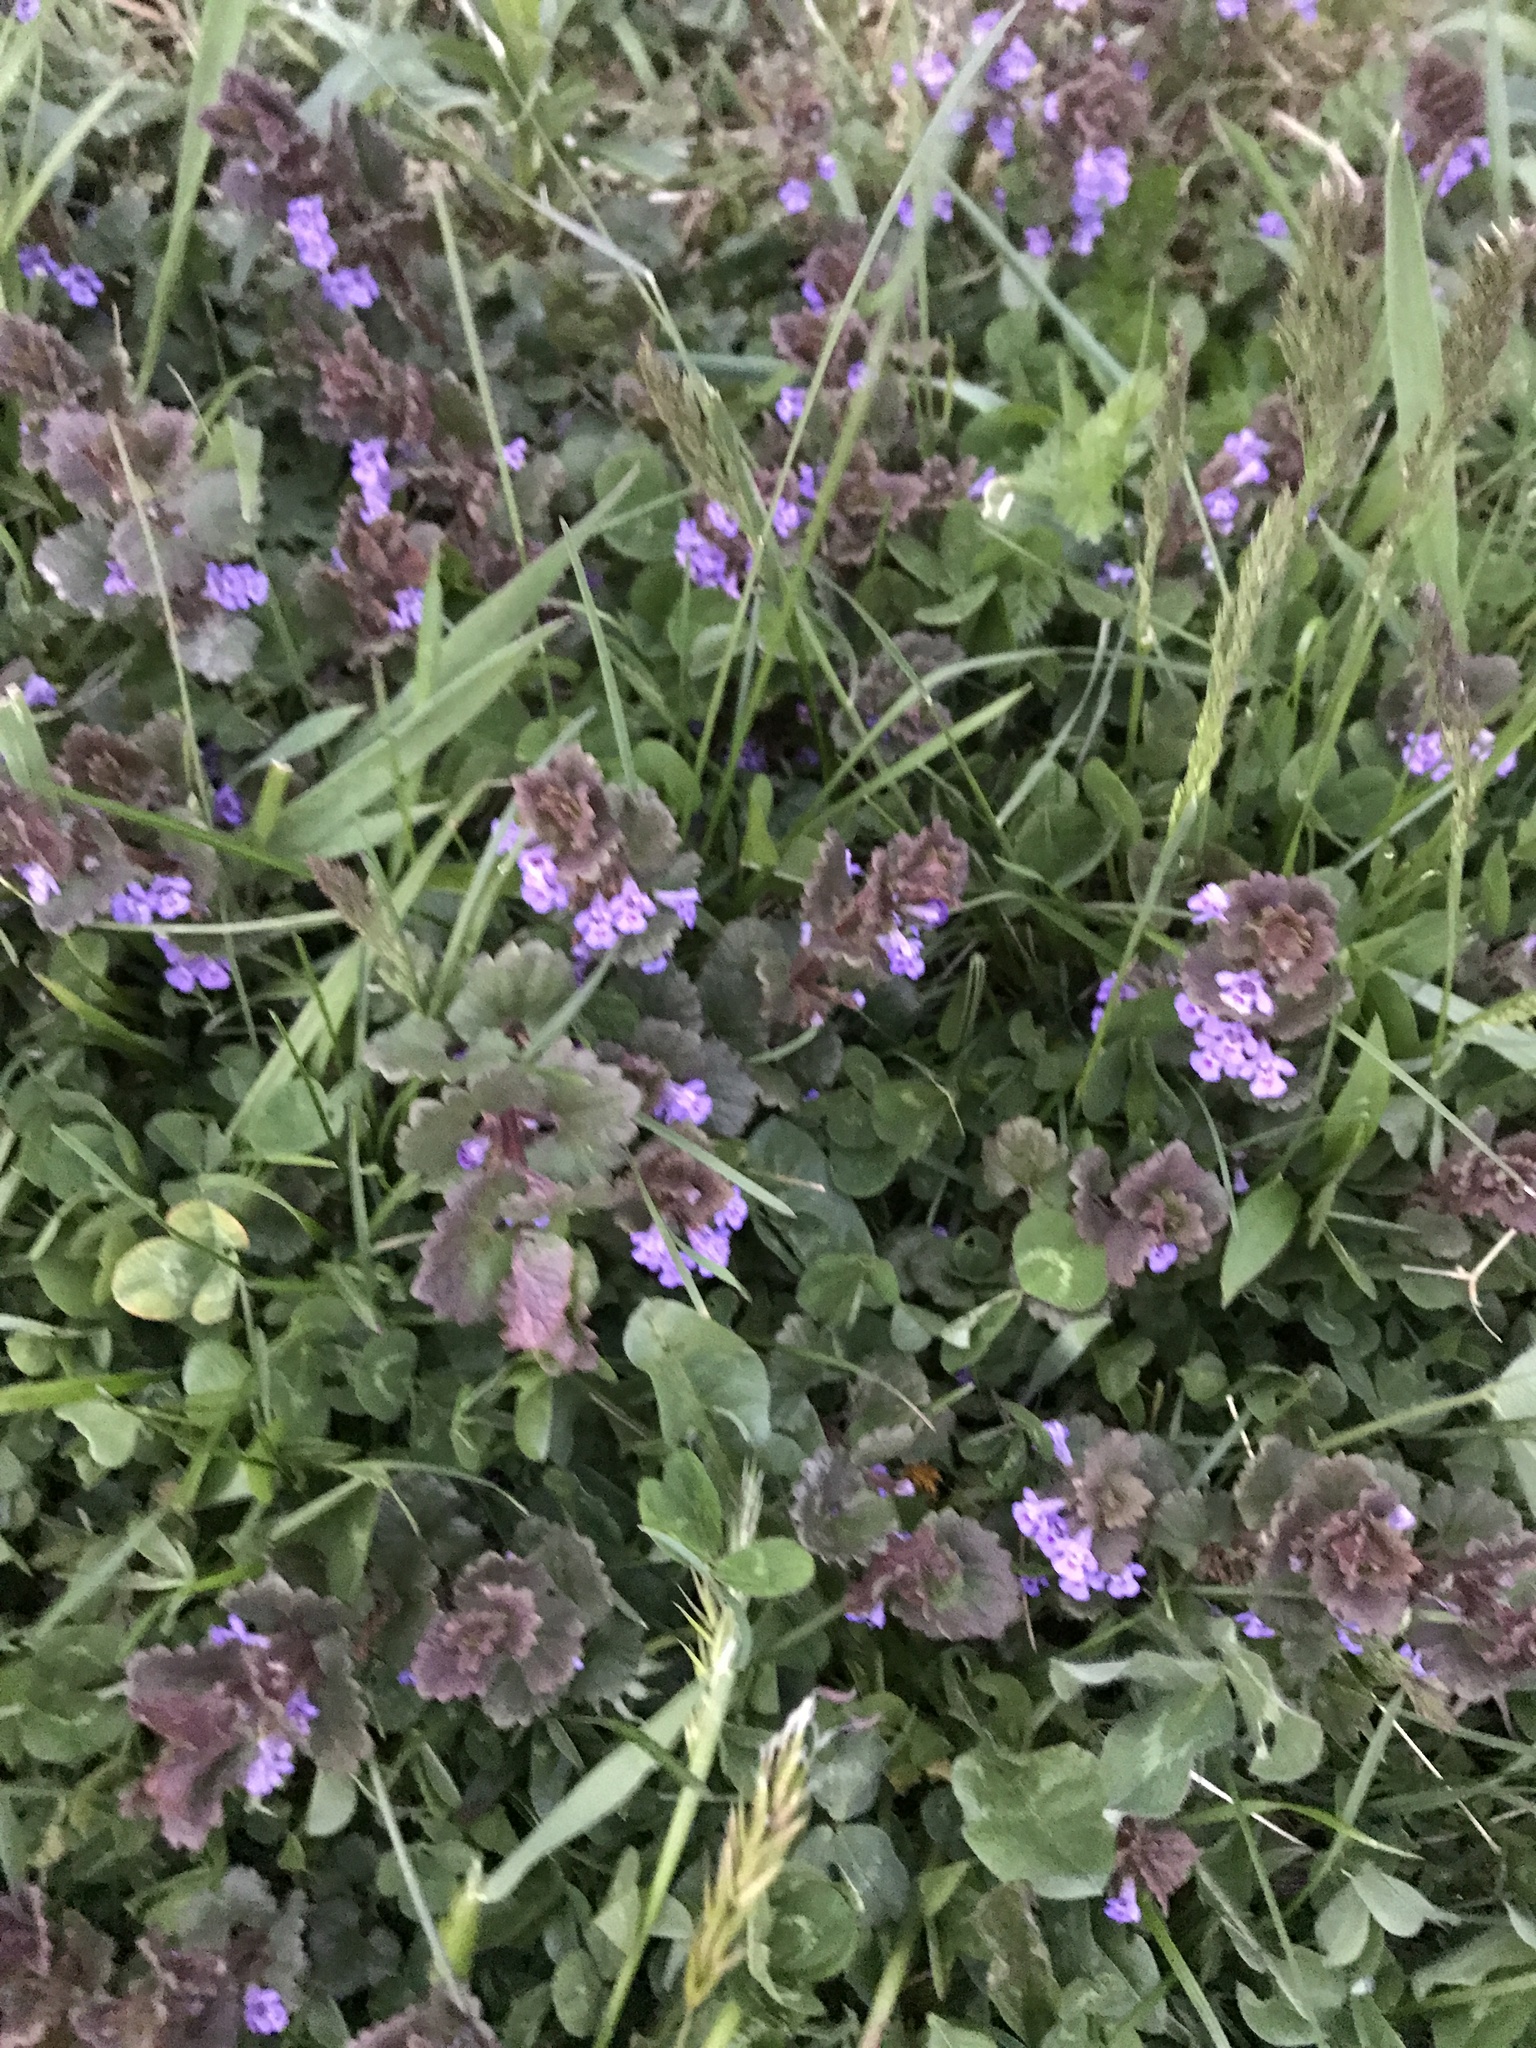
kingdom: Plantae
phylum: Tracheophyta
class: Magnoliopsida
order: Lamiales
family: Lamiaceae
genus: Glechoma
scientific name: Glechoma hederacea
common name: Ground ivy
